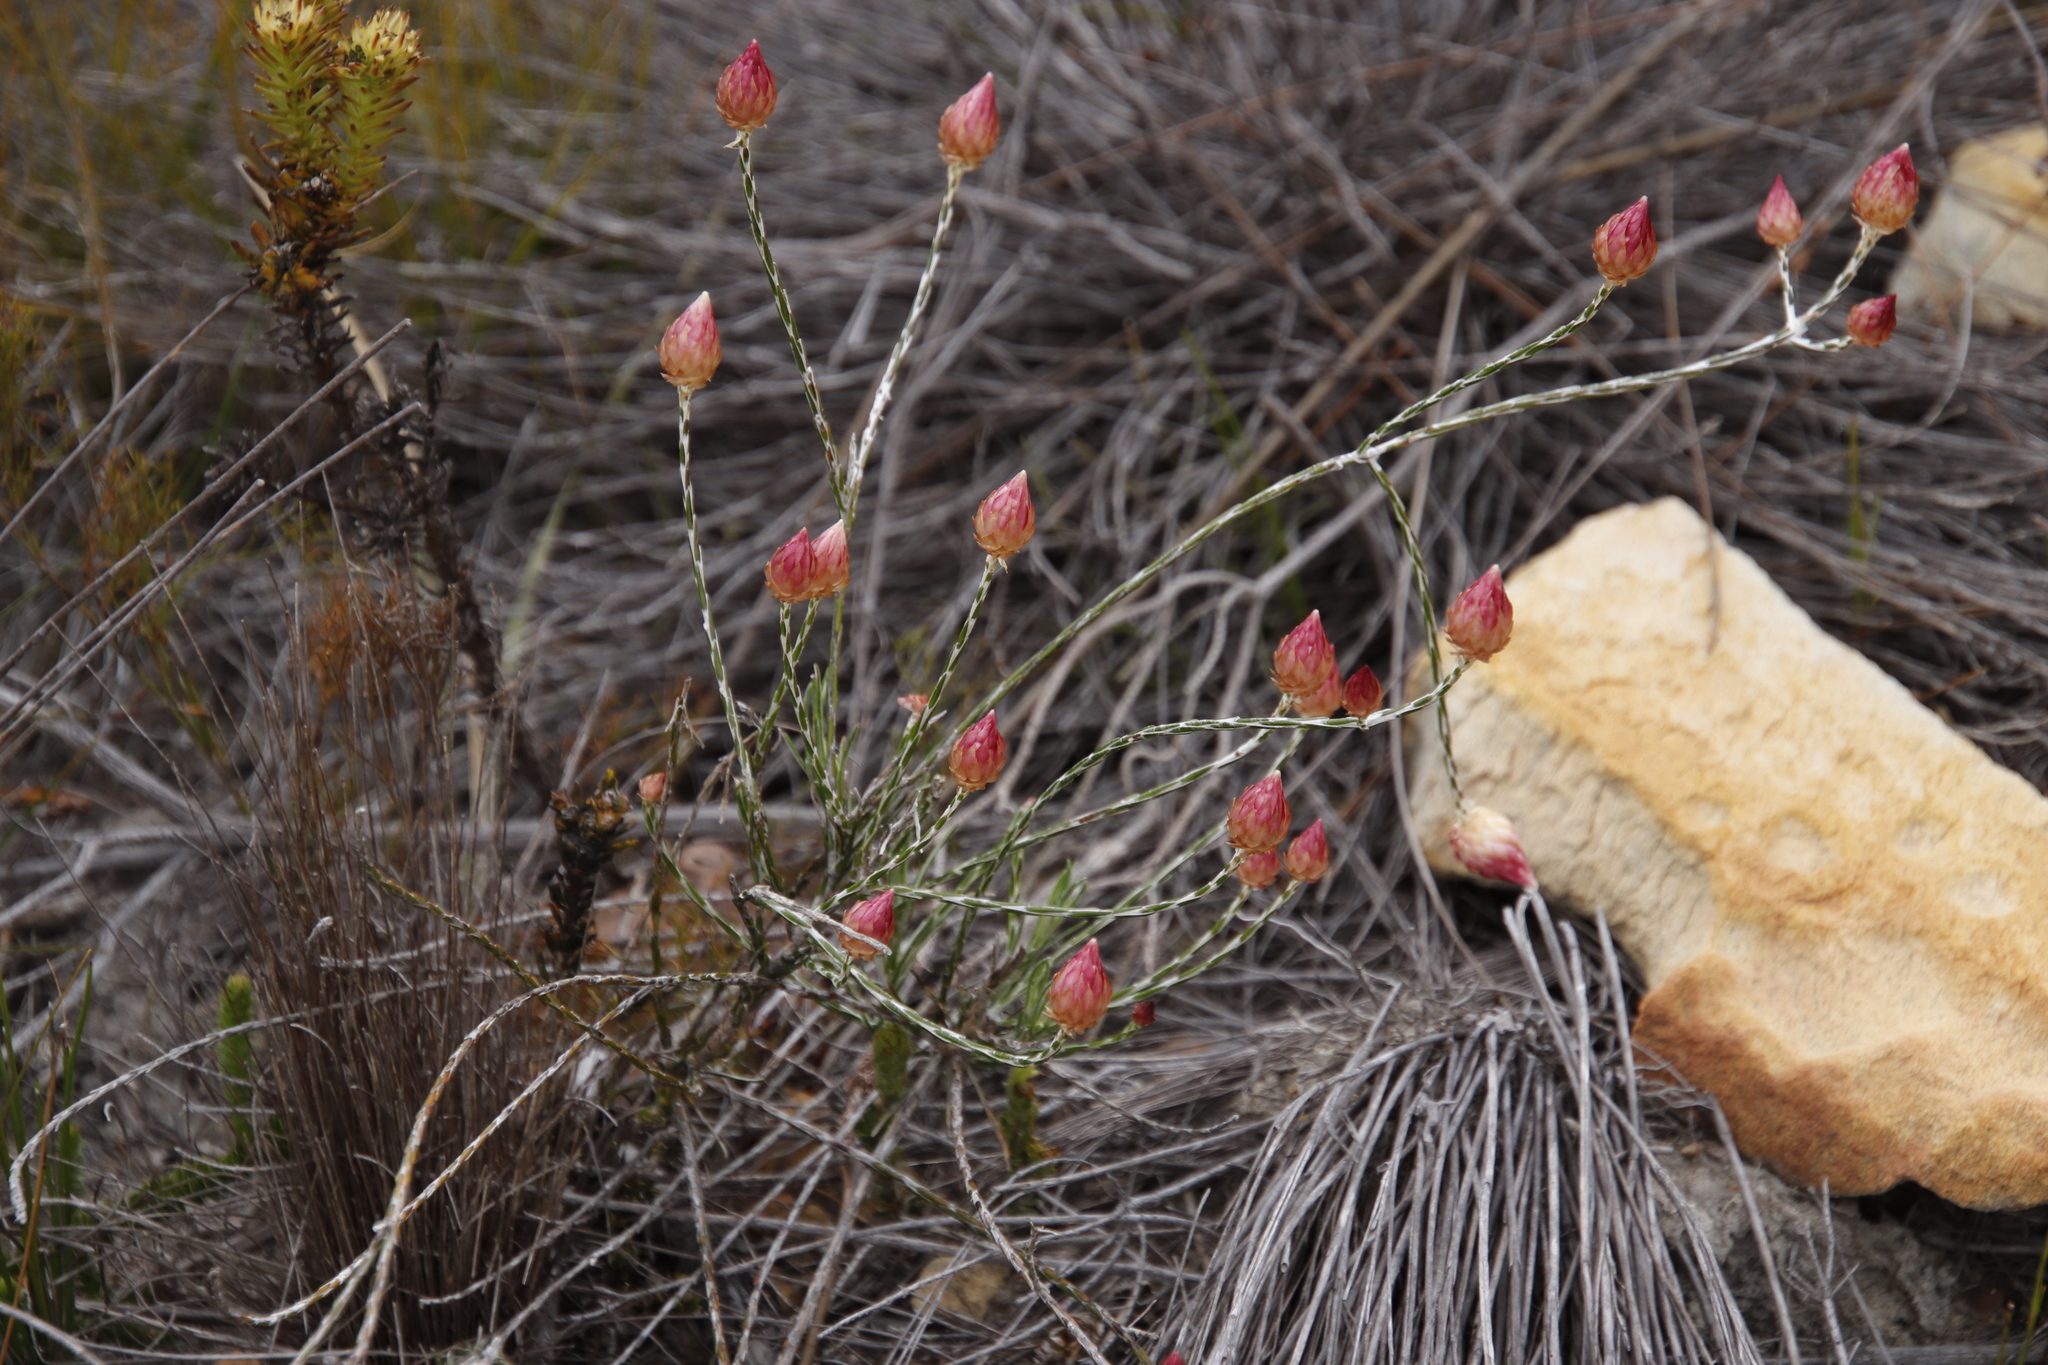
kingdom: Plantae
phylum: Tracheophyta
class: Magnoliopsida
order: Asterales
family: Asteraceae
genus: Edmondia
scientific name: Edmondia sesamoides
